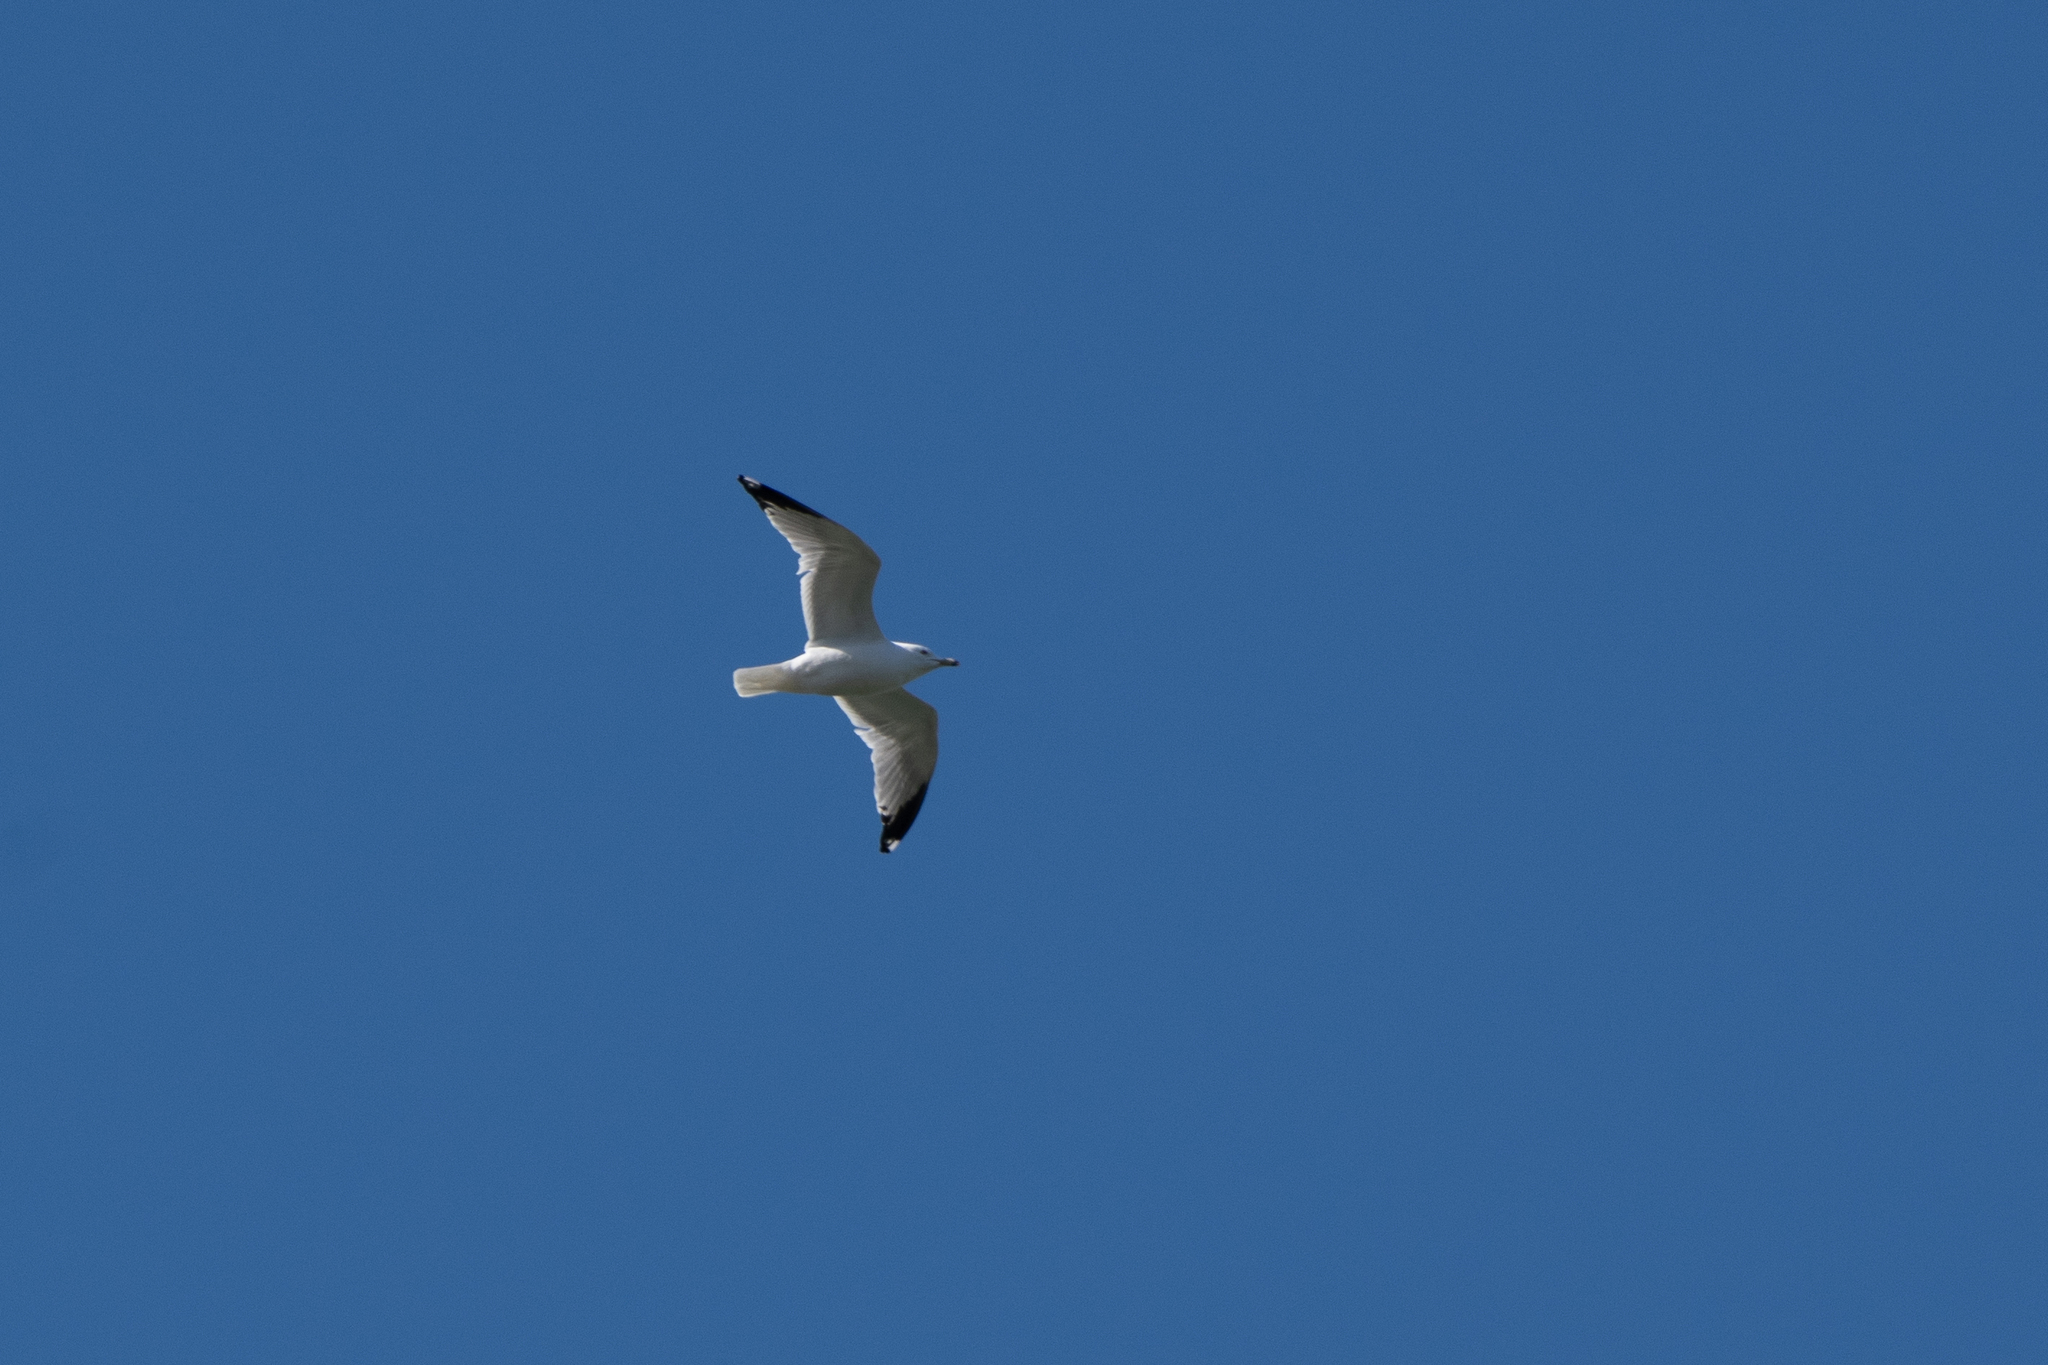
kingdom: Animalia
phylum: Chordata
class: Aves
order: Charadriiformes
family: Laridae
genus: Larus
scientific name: Larus delawarensis
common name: Ring-billed gull
